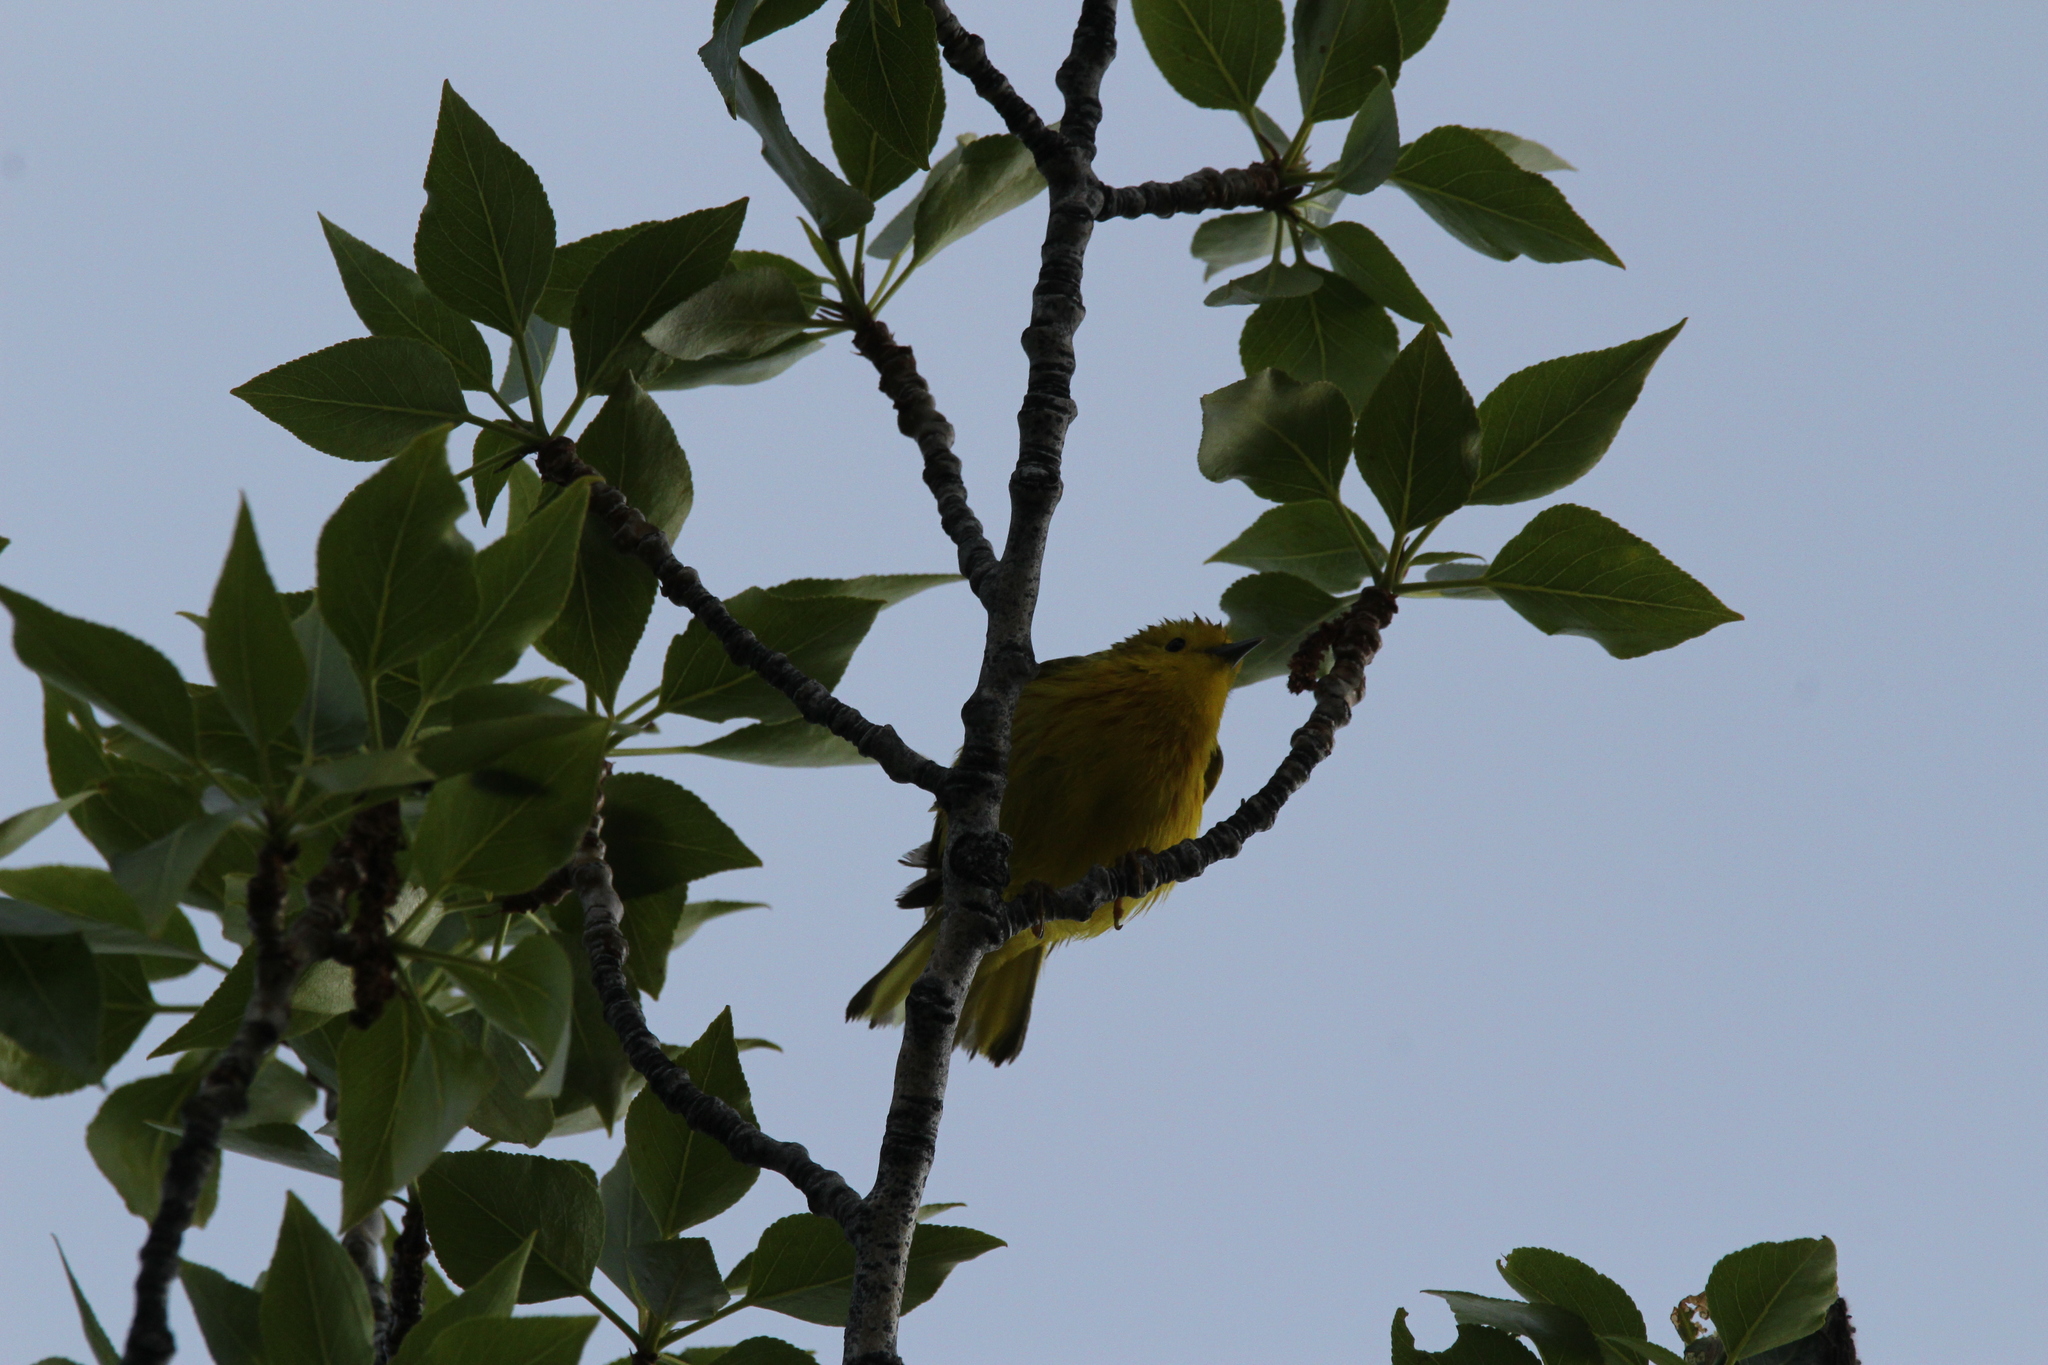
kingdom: Animalia
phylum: Chordata
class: Aves
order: Passeriformes
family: Parulidae
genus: Setophaga
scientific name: Setophaga petechia
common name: Yellow warbler
